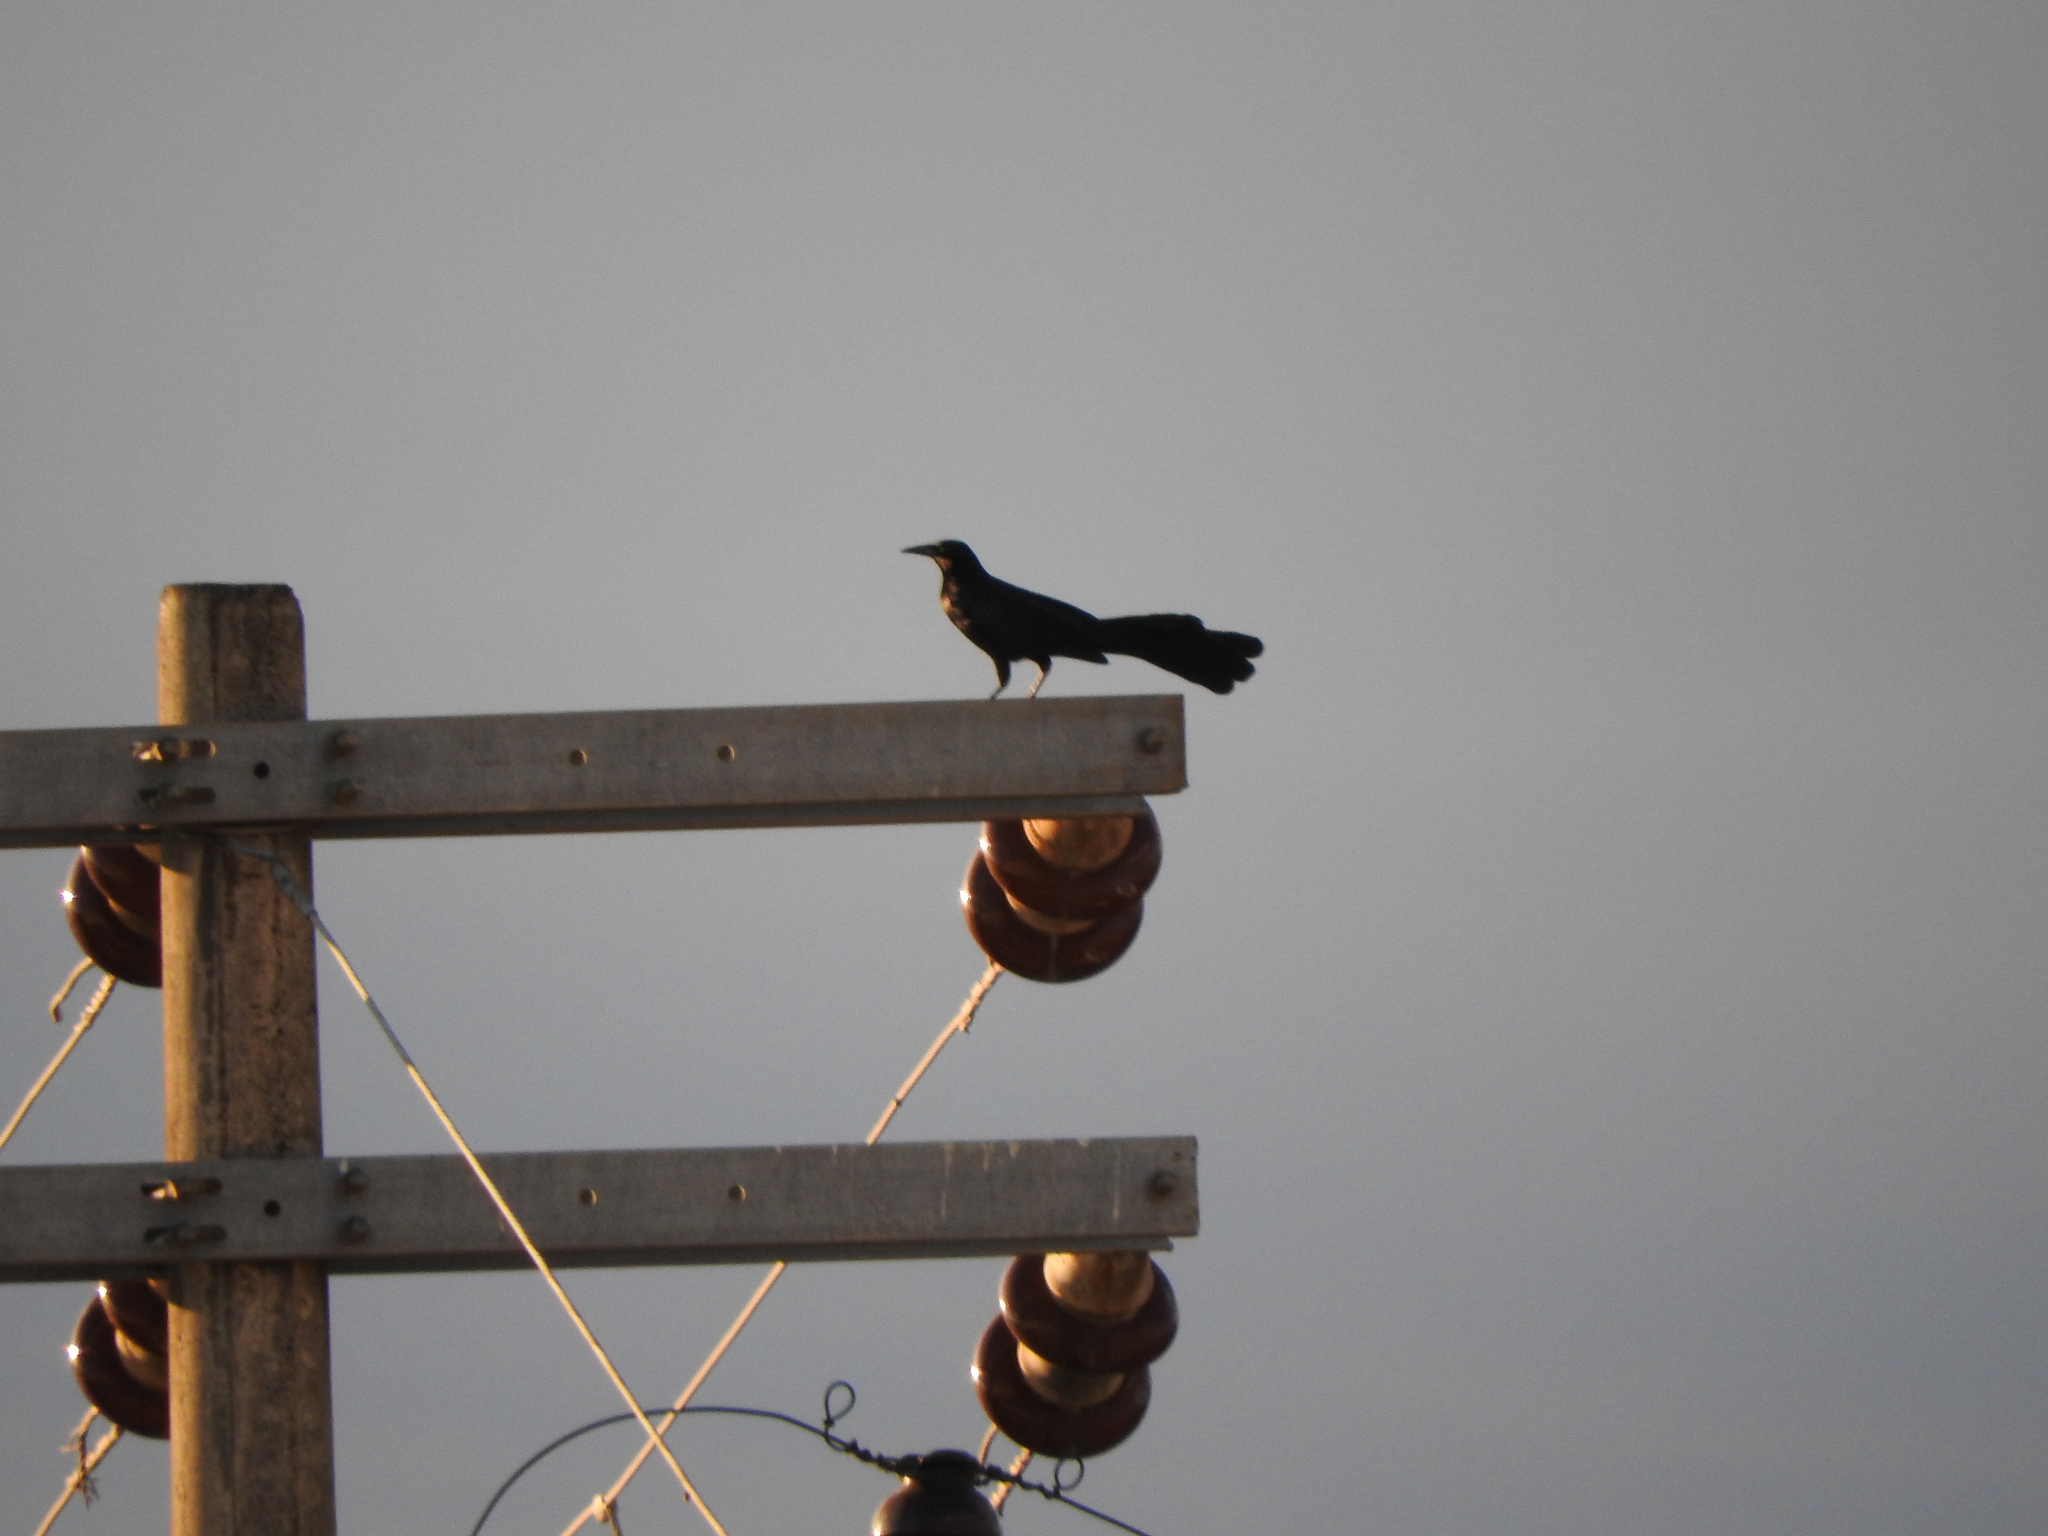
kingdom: Animalia
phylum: Chordata
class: Aves
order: Passeriformes
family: Icteridae
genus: Quiscalus
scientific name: Quiscalus mexicanus
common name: Great-tailed grackle
